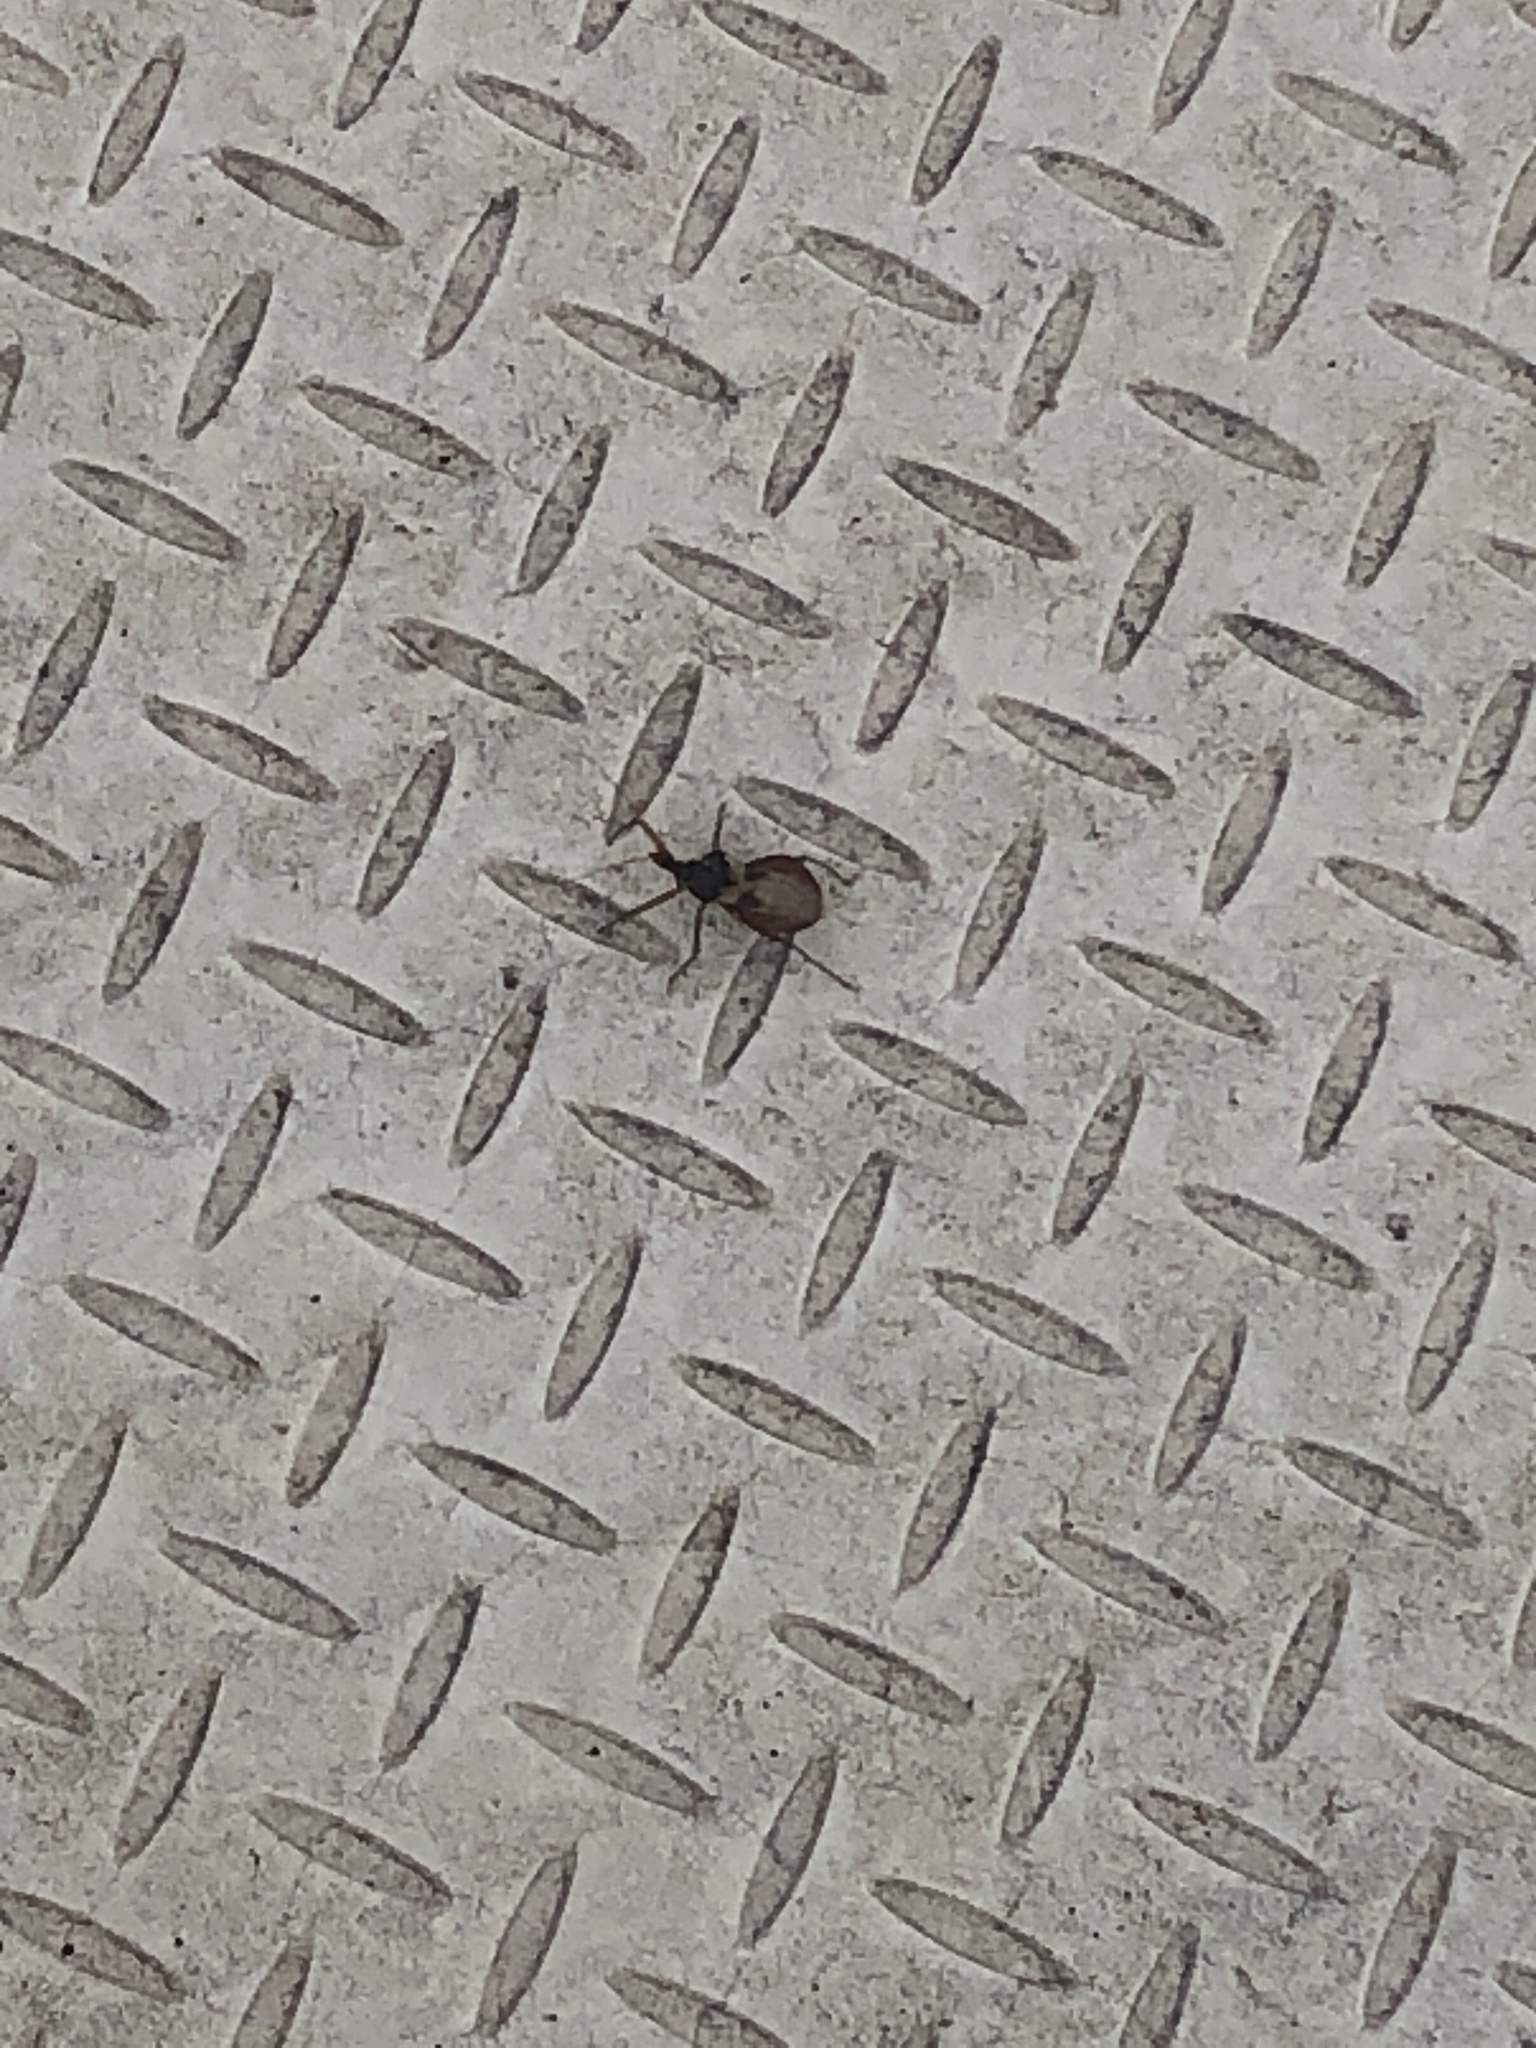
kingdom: Animalia
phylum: Arthropoda
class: Insecta
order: Hemiptera
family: Reduviidae
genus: Pristhesancus
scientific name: Pristhesancus plagipennis
